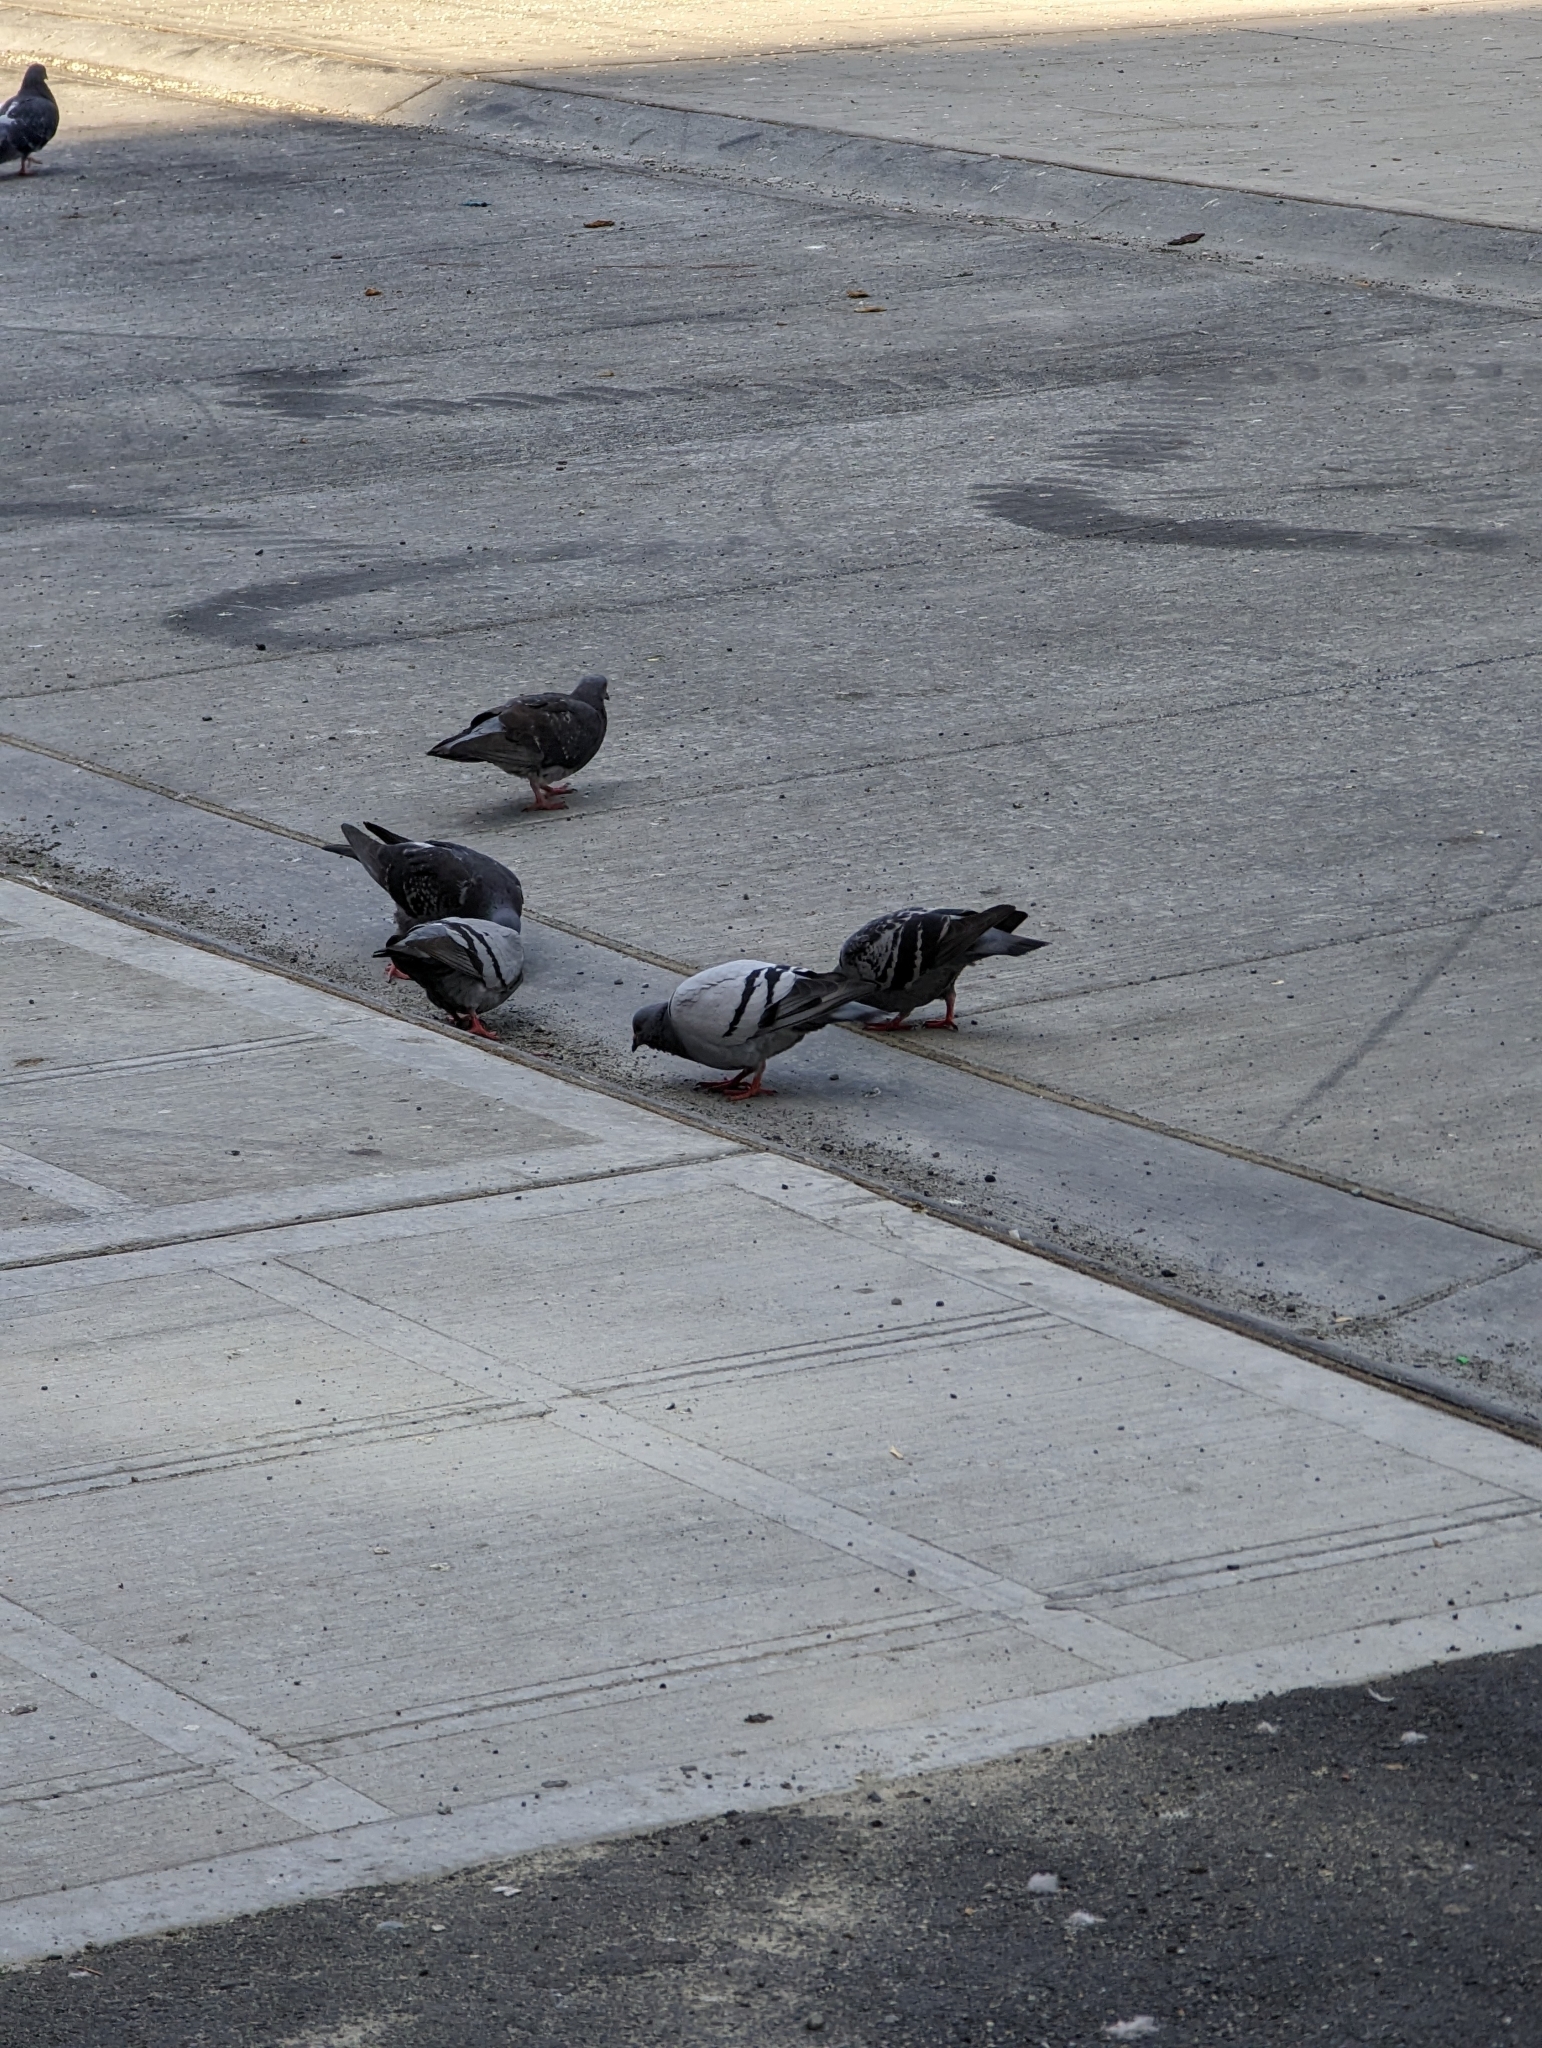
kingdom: Animalia
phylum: Chordata
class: Aves
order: Columbiformes
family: Columbidae
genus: Columba
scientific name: Columba livia
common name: Rock pigeon
